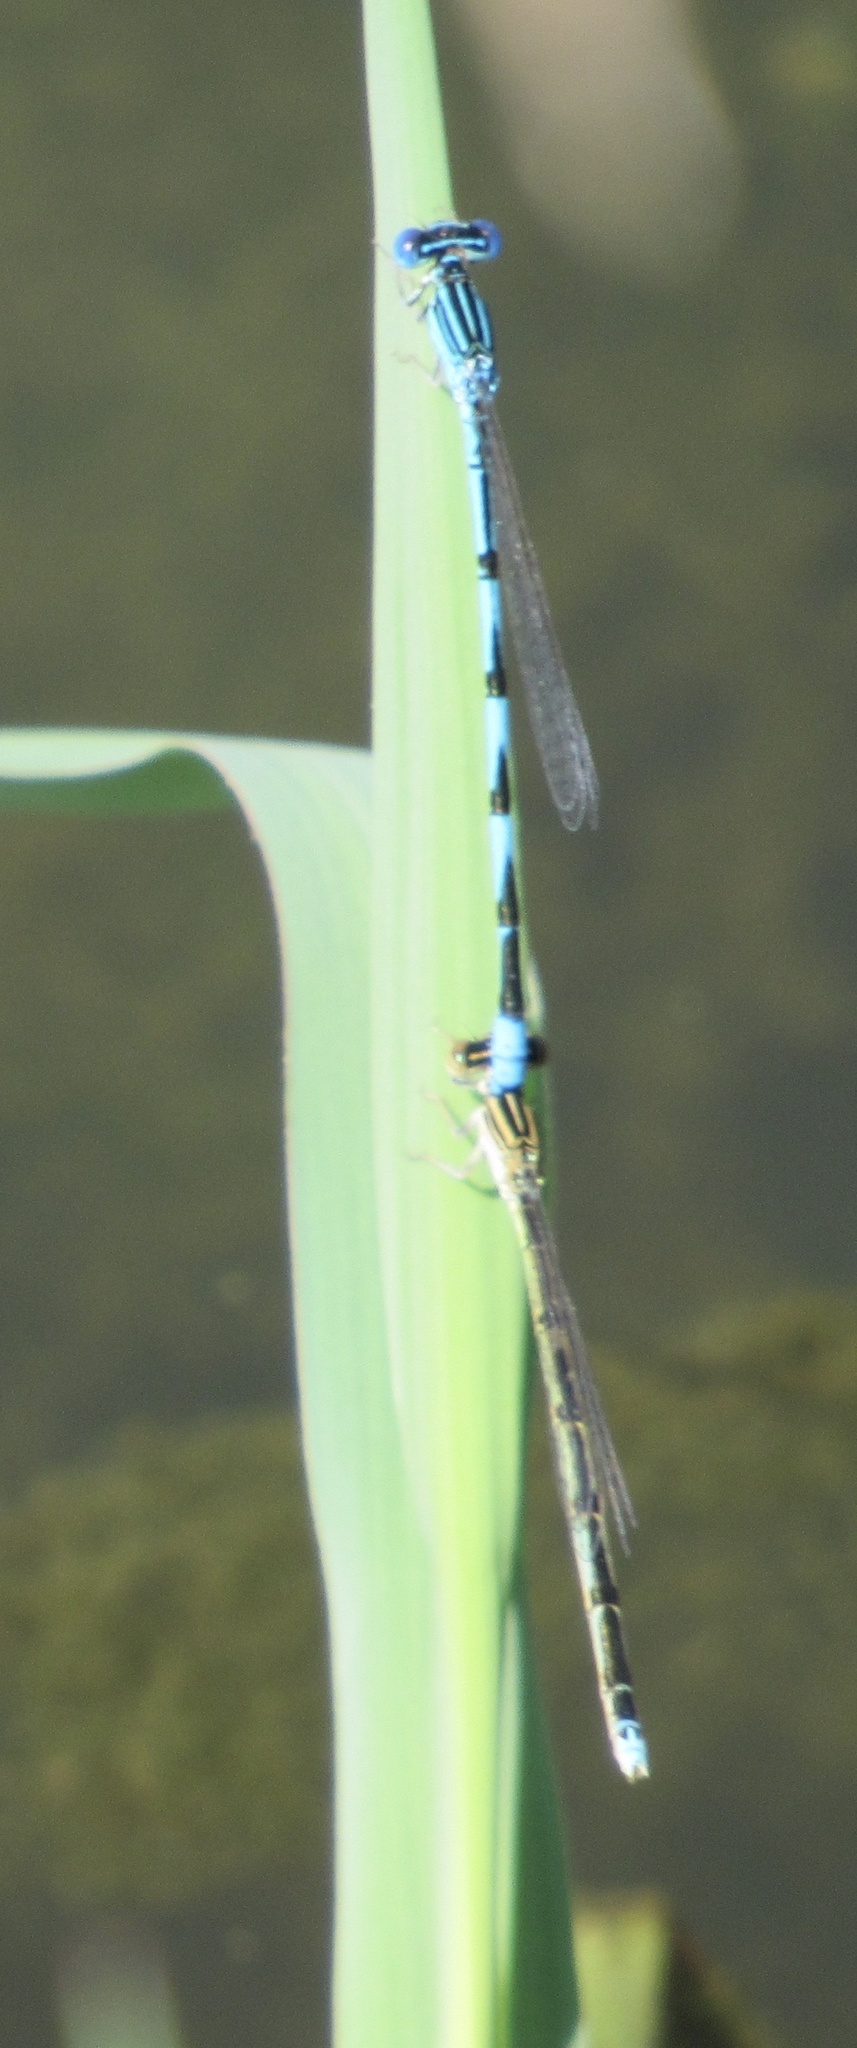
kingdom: Animalia
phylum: Arthropoda
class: Insecta
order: Odonata
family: Coenagrionidae
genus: Enallagma
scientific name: Enallagma basidens
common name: Double-striped bluet
